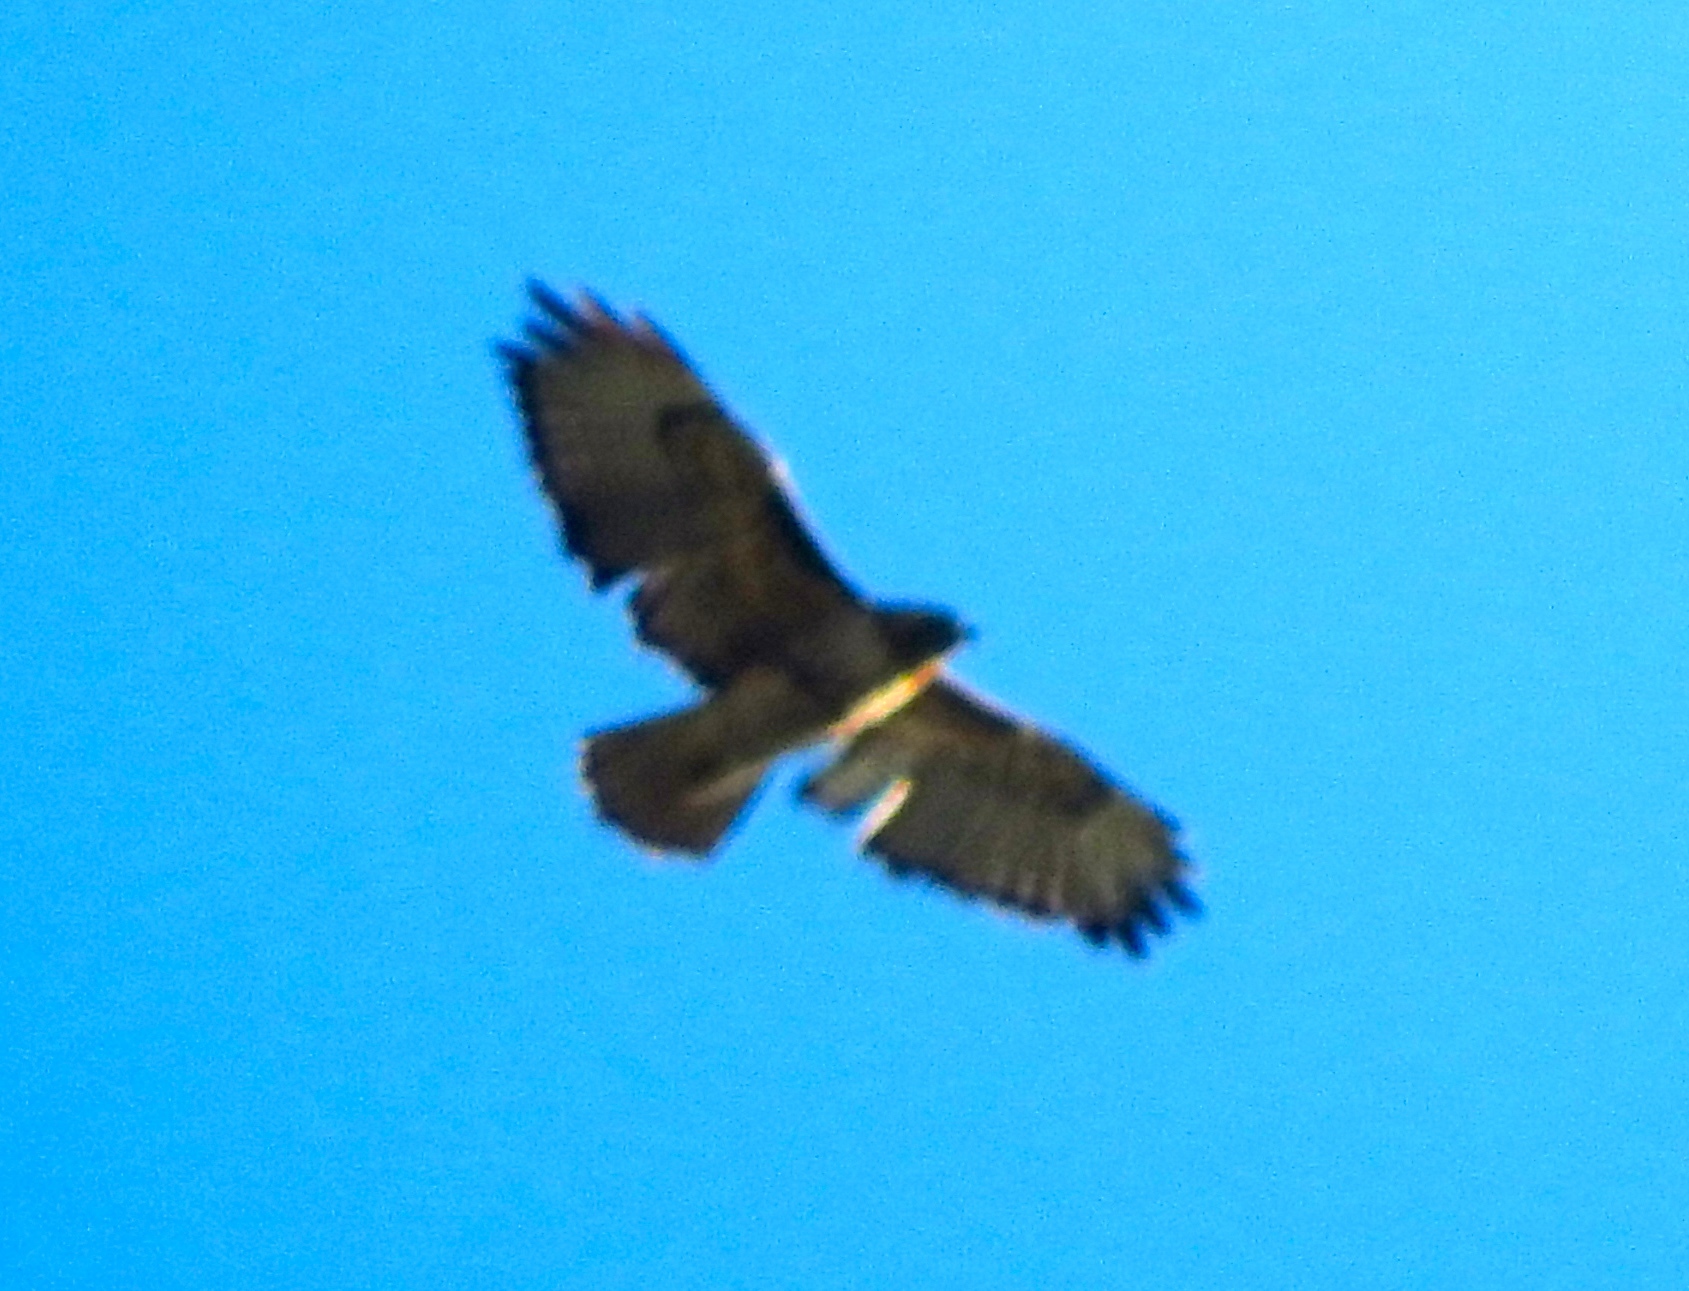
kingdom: Animalia
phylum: Chordata
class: Aves
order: Accipitriformes
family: Accipitridae
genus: Buteo
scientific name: Buteo jamaicensis
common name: Red-tailed hawk
